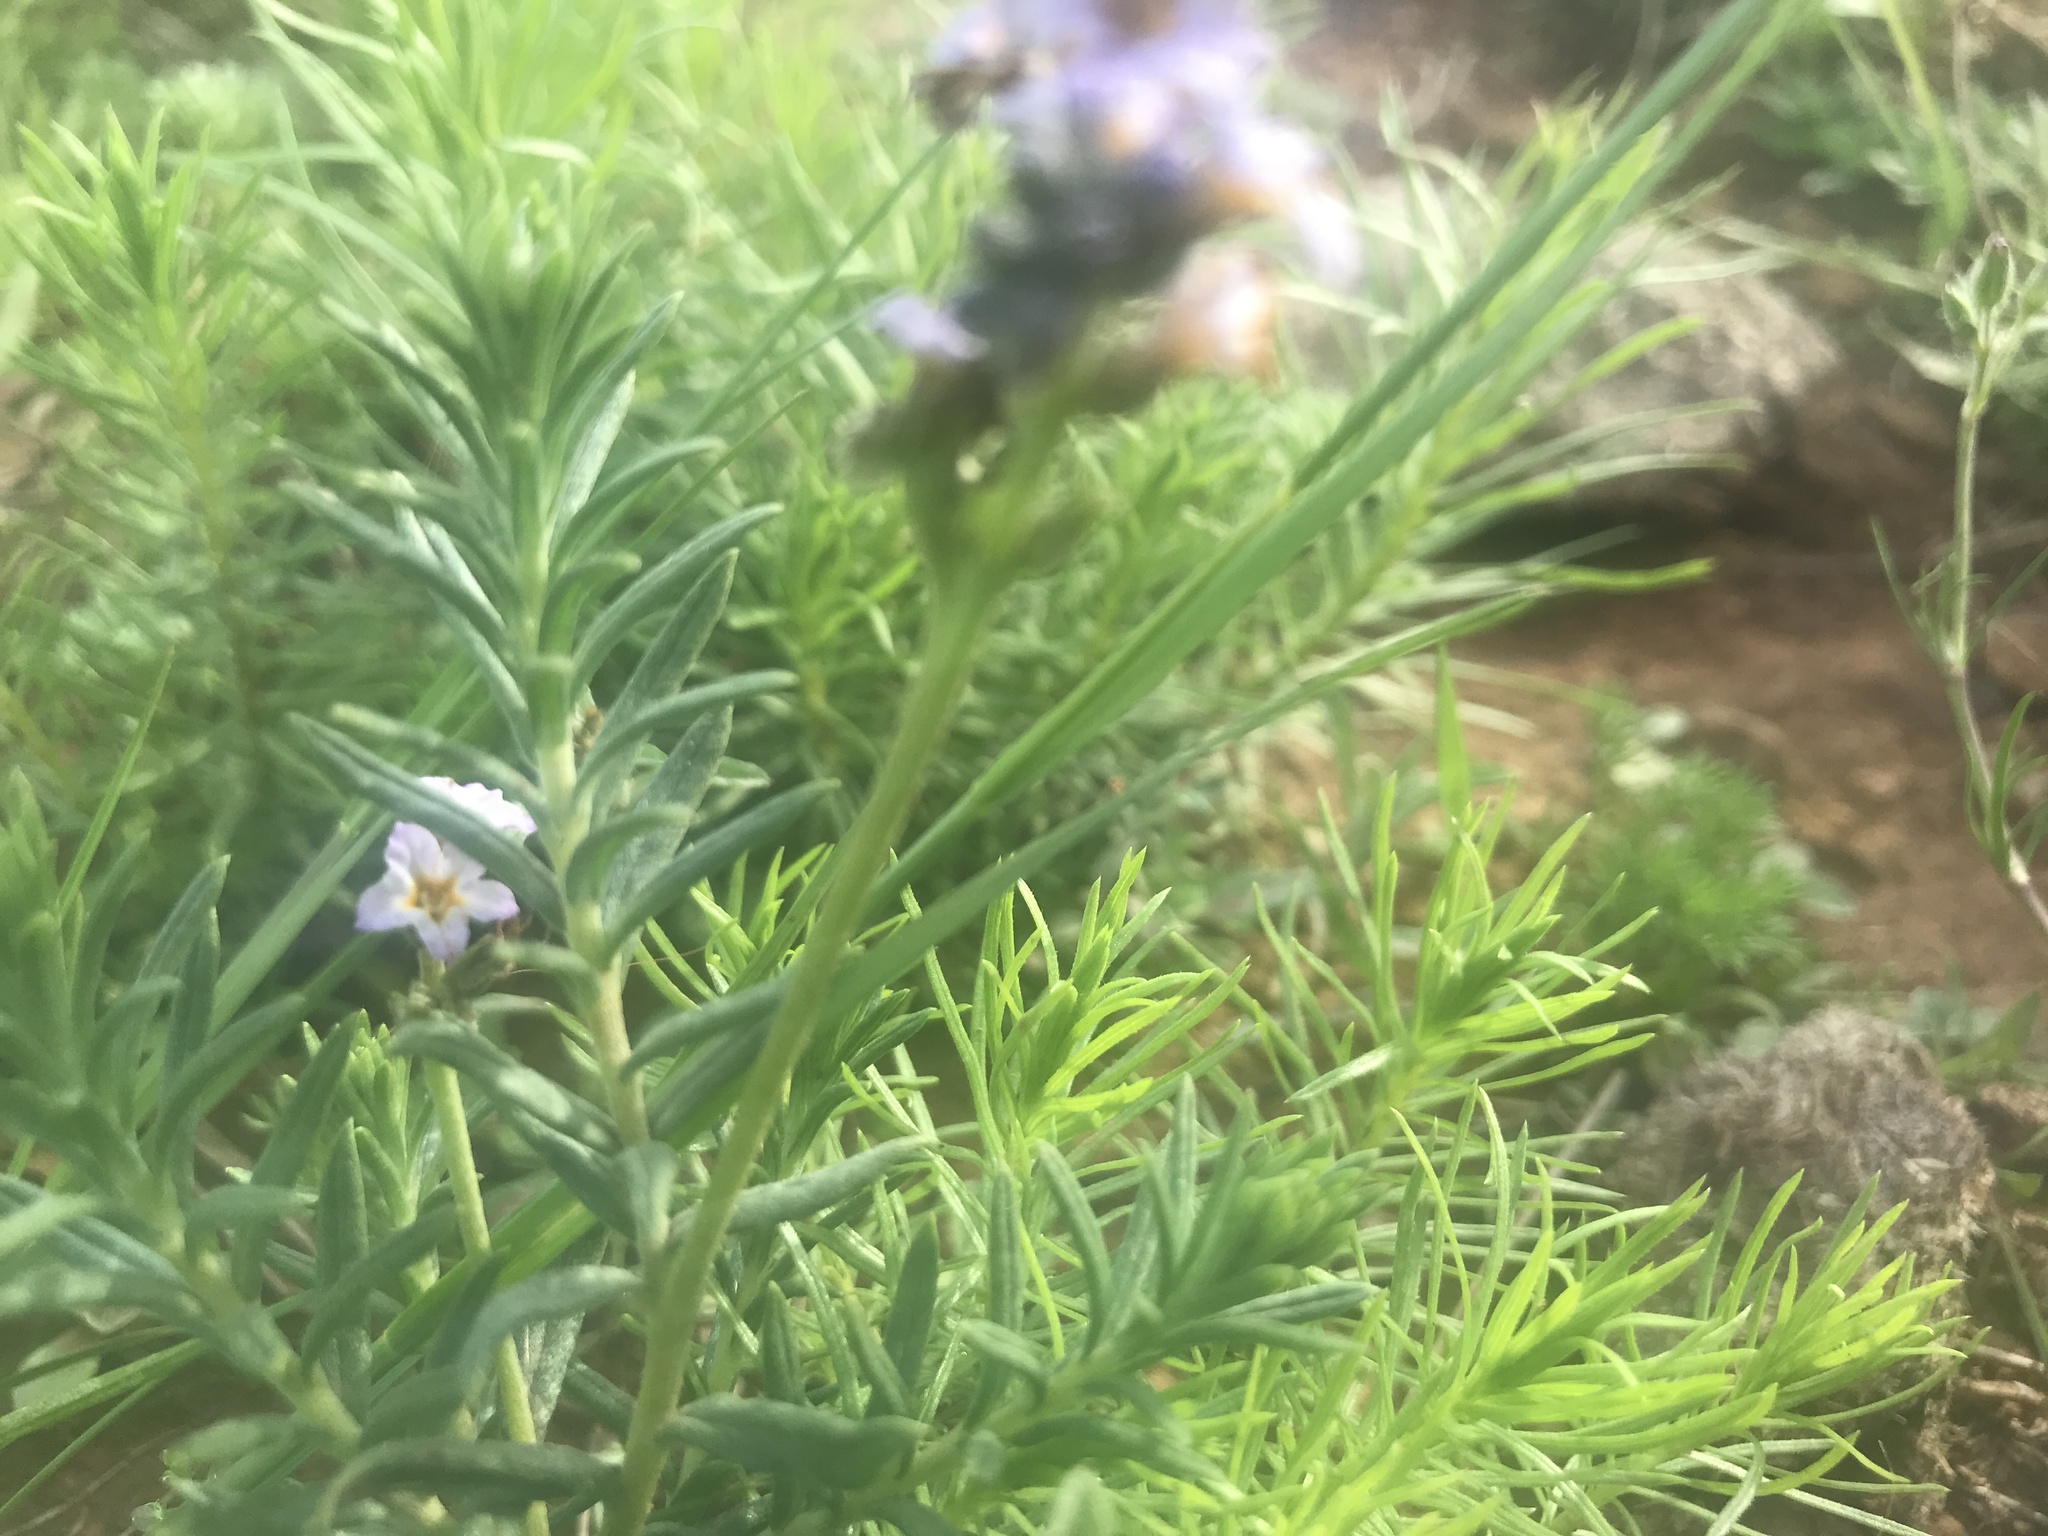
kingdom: Plantae
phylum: Tracheophyta
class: Magnoliopsida
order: Boraginales
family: Heliotropiaceae
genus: Heliotropium
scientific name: Heliotropium phylicoides
